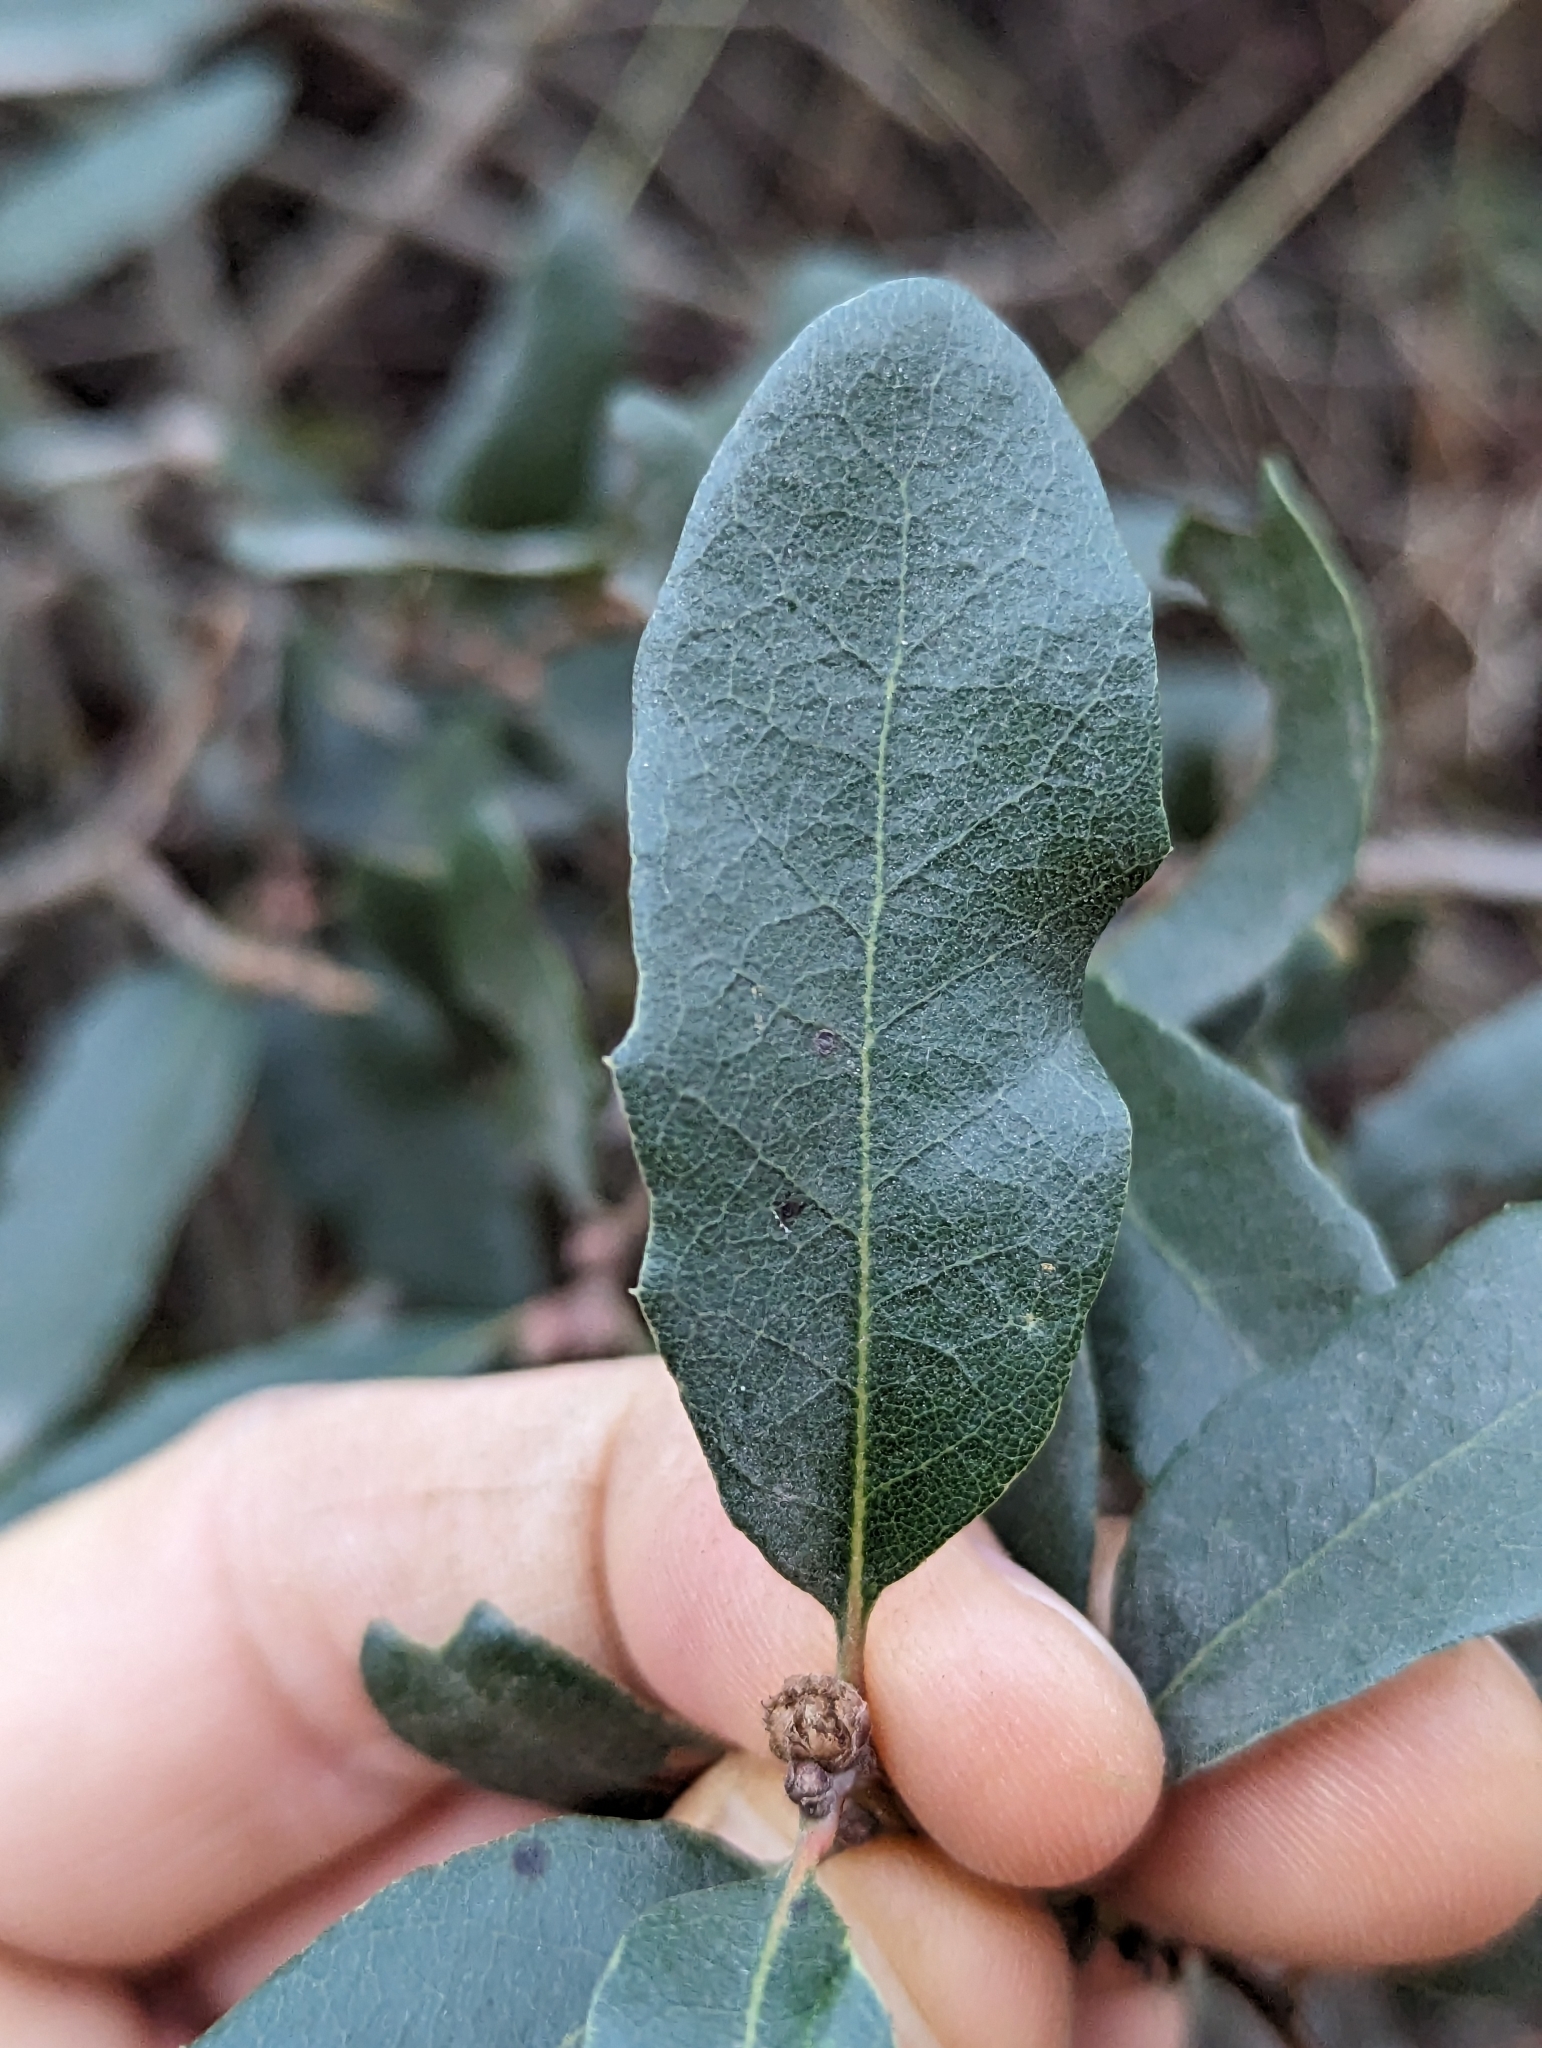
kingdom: Plantae
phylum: Tracheophyta
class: Magnoliopsida
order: Fagales
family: Fagaceae
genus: Quercus
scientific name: Quercus engelmannii
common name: Engelmann oak
